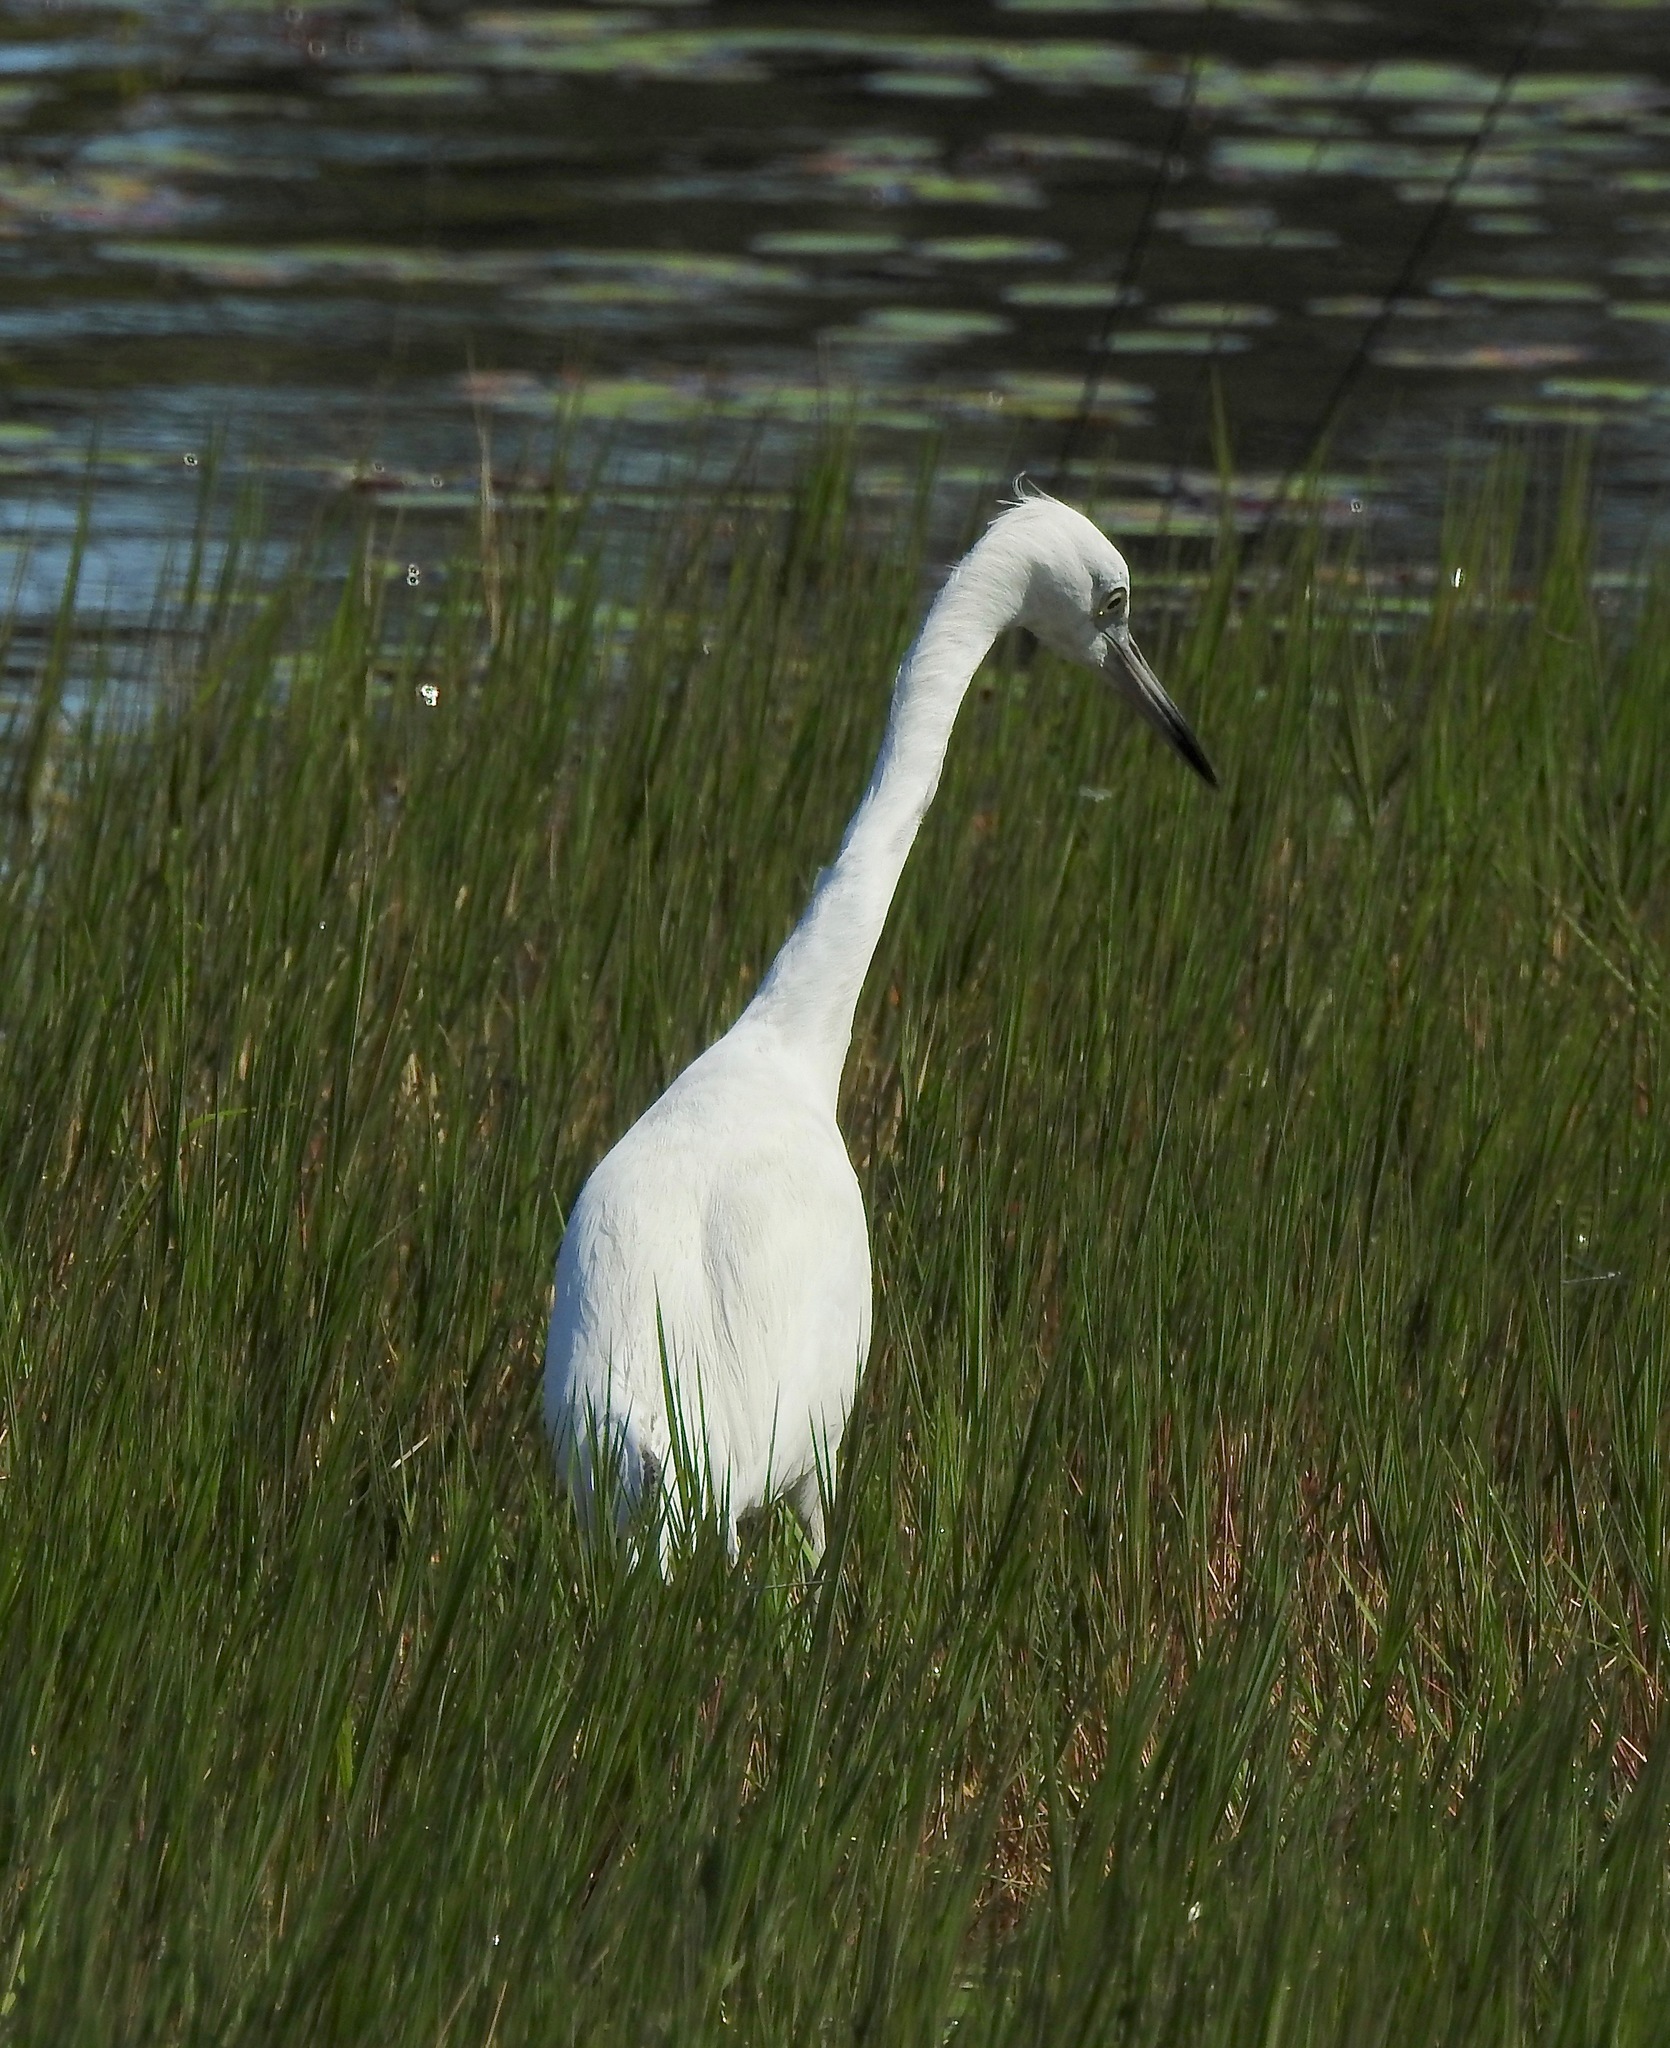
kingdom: Animalia
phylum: Chordata
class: Aves
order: Pelecaniformes
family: Ardeidae
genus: Egretta
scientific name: Egretta caerulea
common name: Little blue heron
